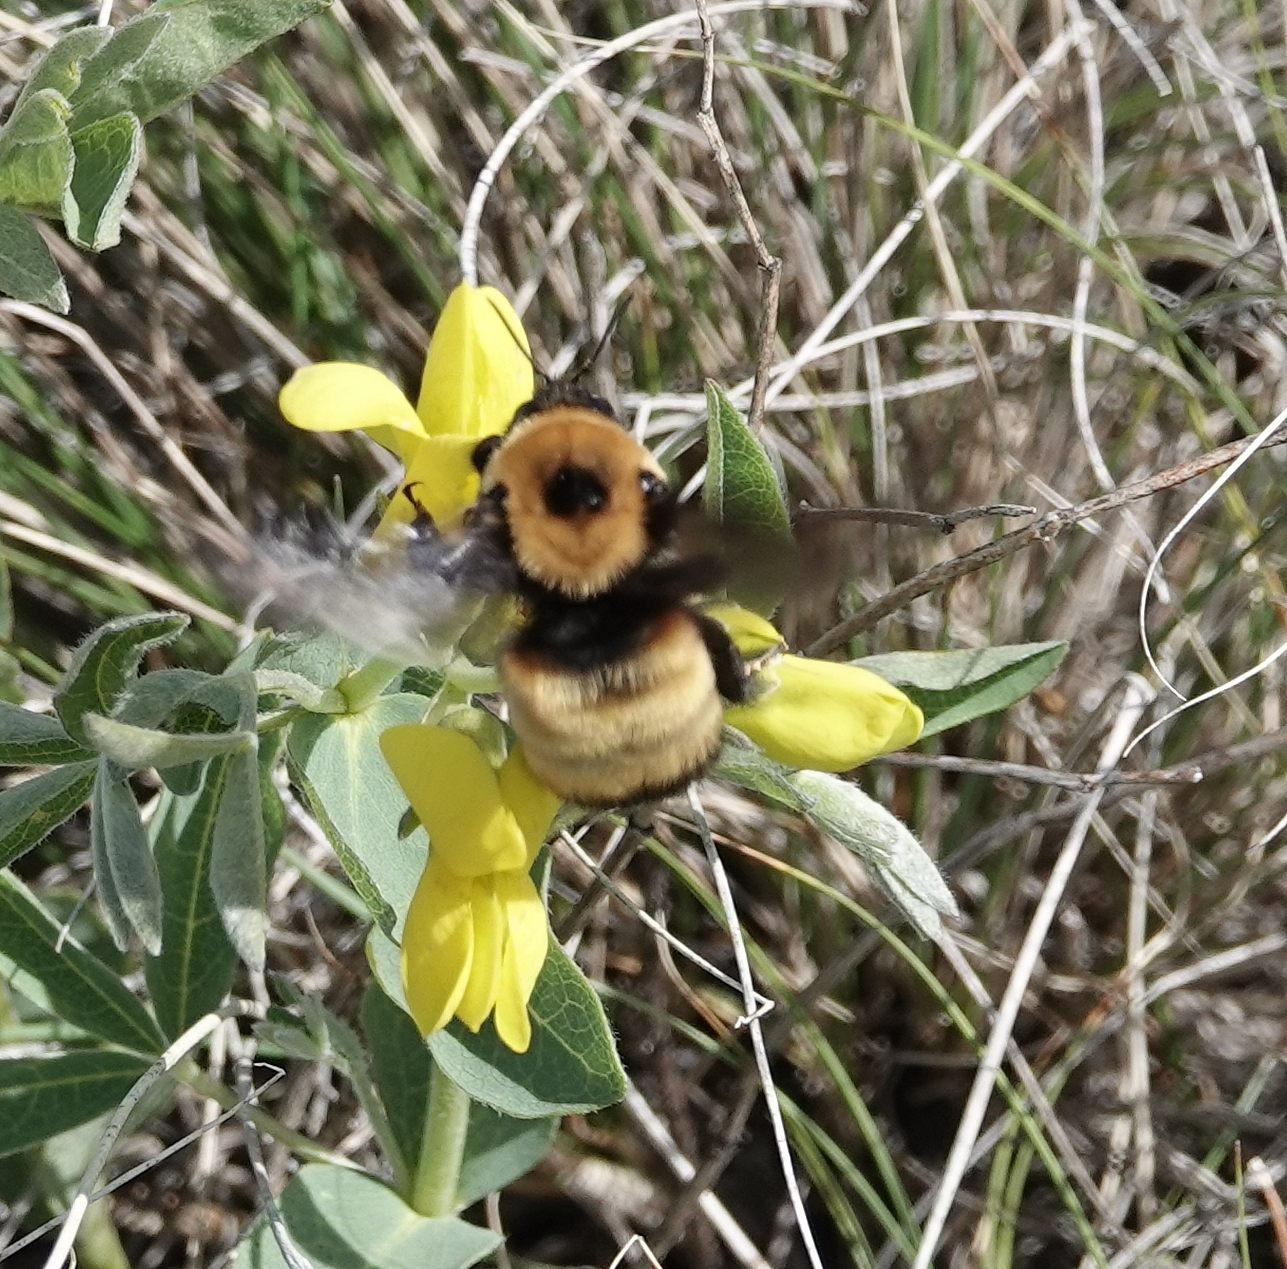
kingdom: Animalia
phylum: Arthropoda
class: Insecta
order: Hymenoptera
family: Apidae
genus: Bombus
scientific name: Bombus nevadensis
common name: Nevada bumble bee
